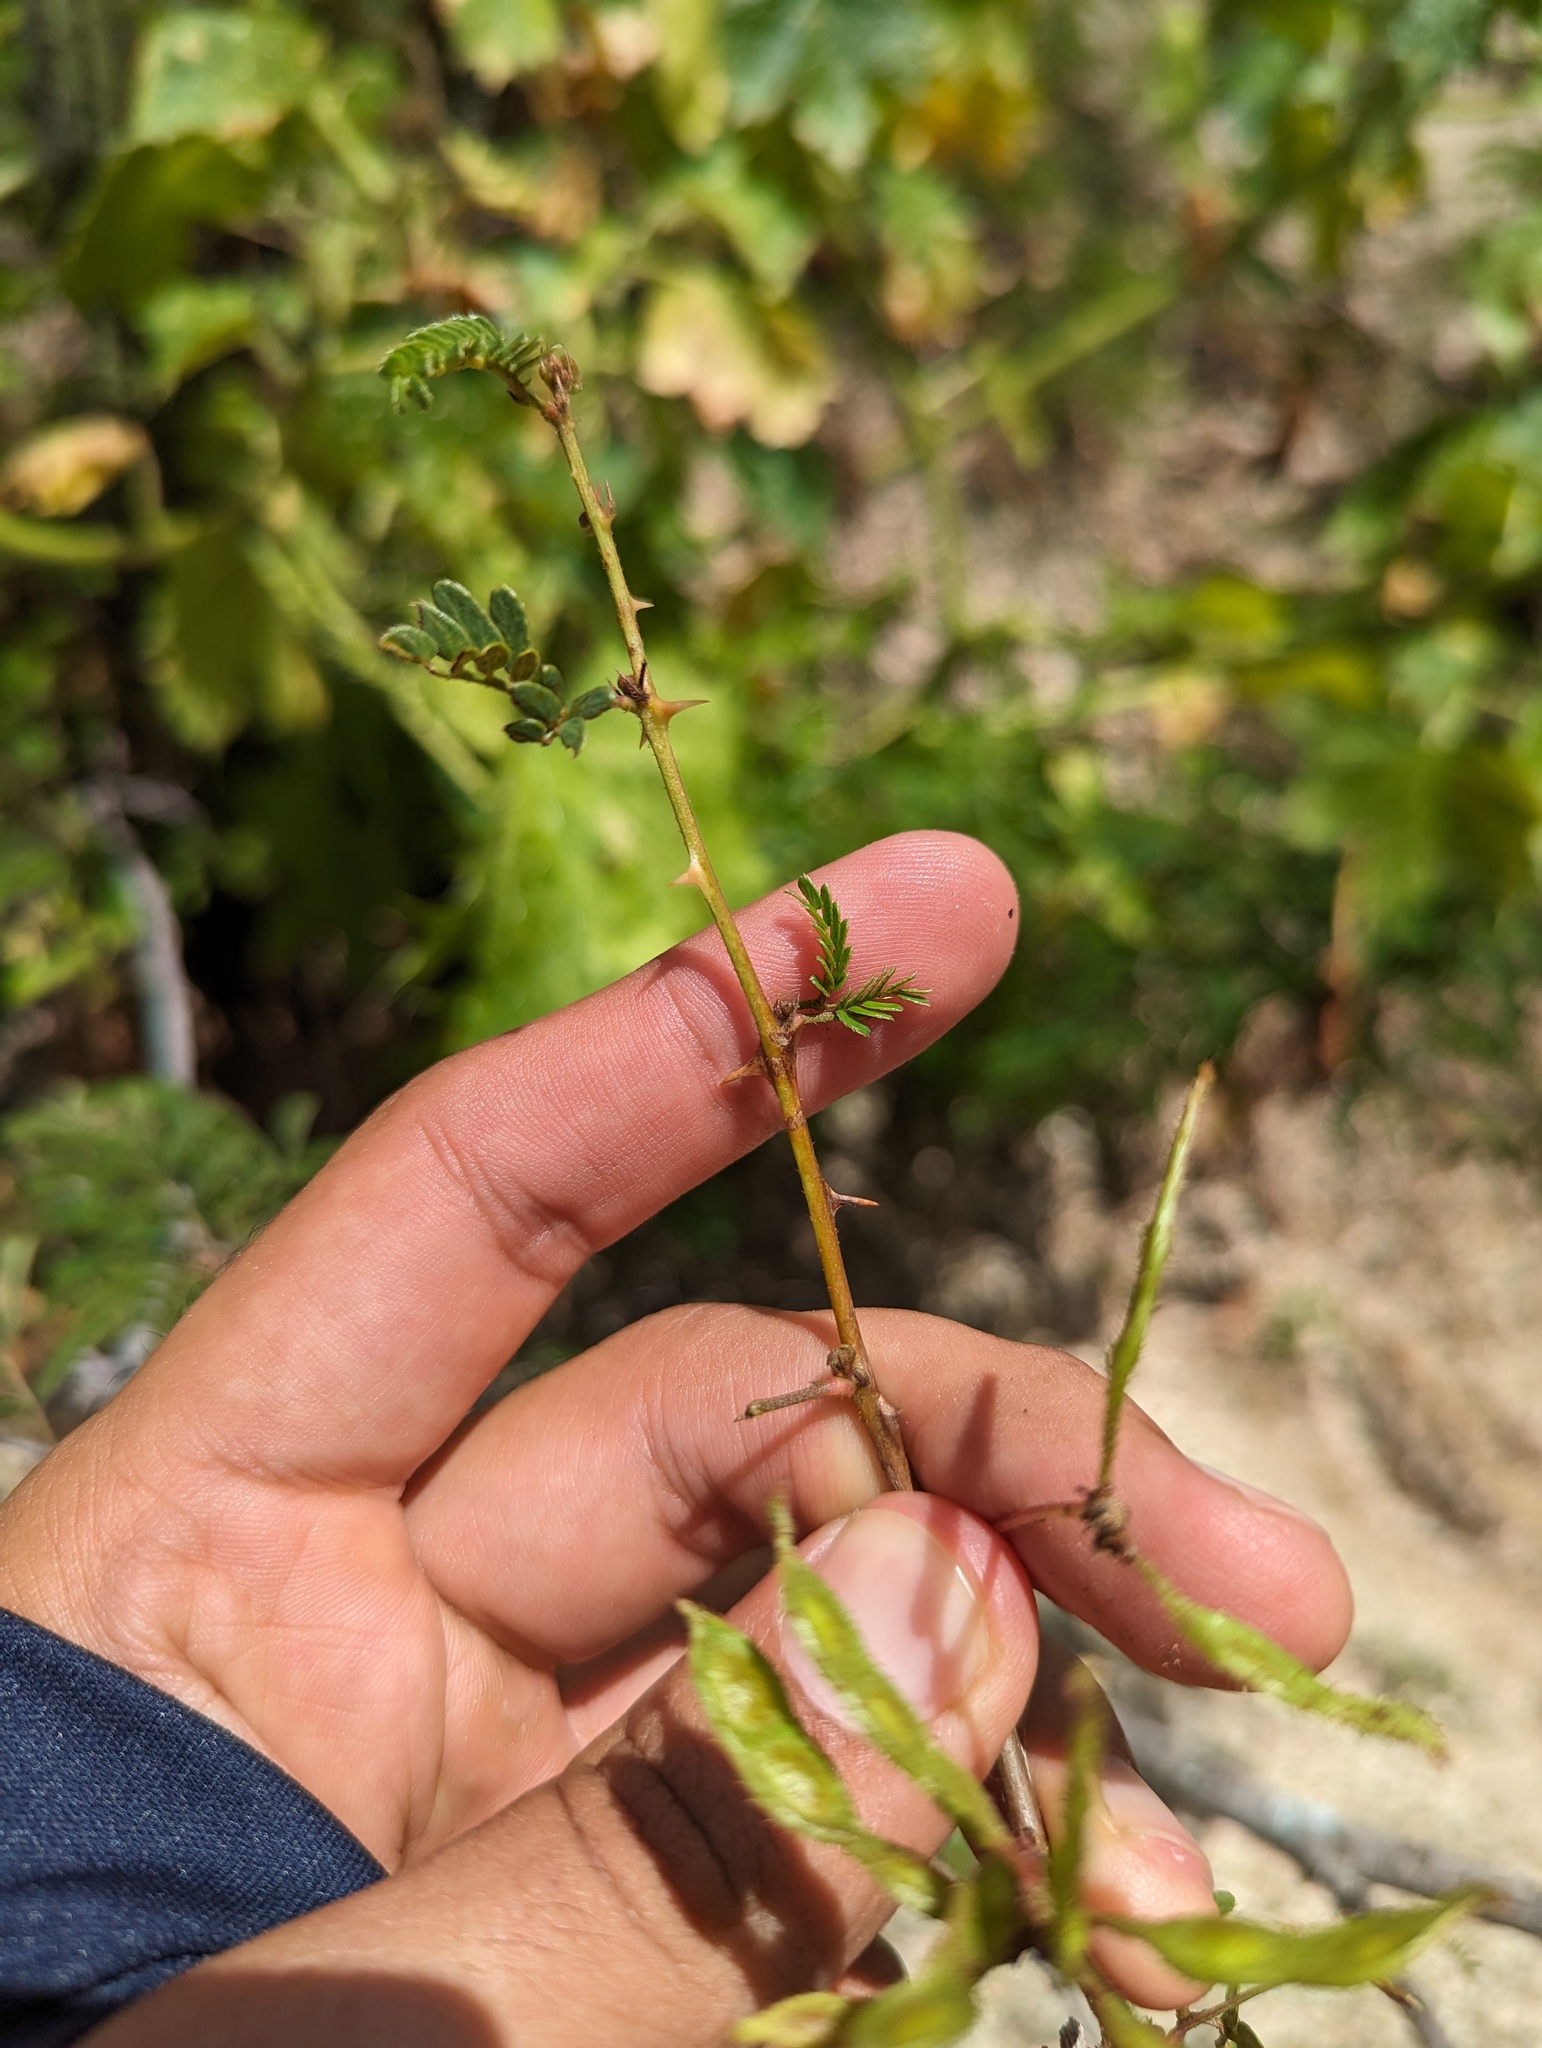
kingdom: Plantae
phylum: Tracheophyta
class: Magnoliopsida
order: Fabales
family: Fabaceae
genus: Mimosa
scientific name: Mimosa tricephala
